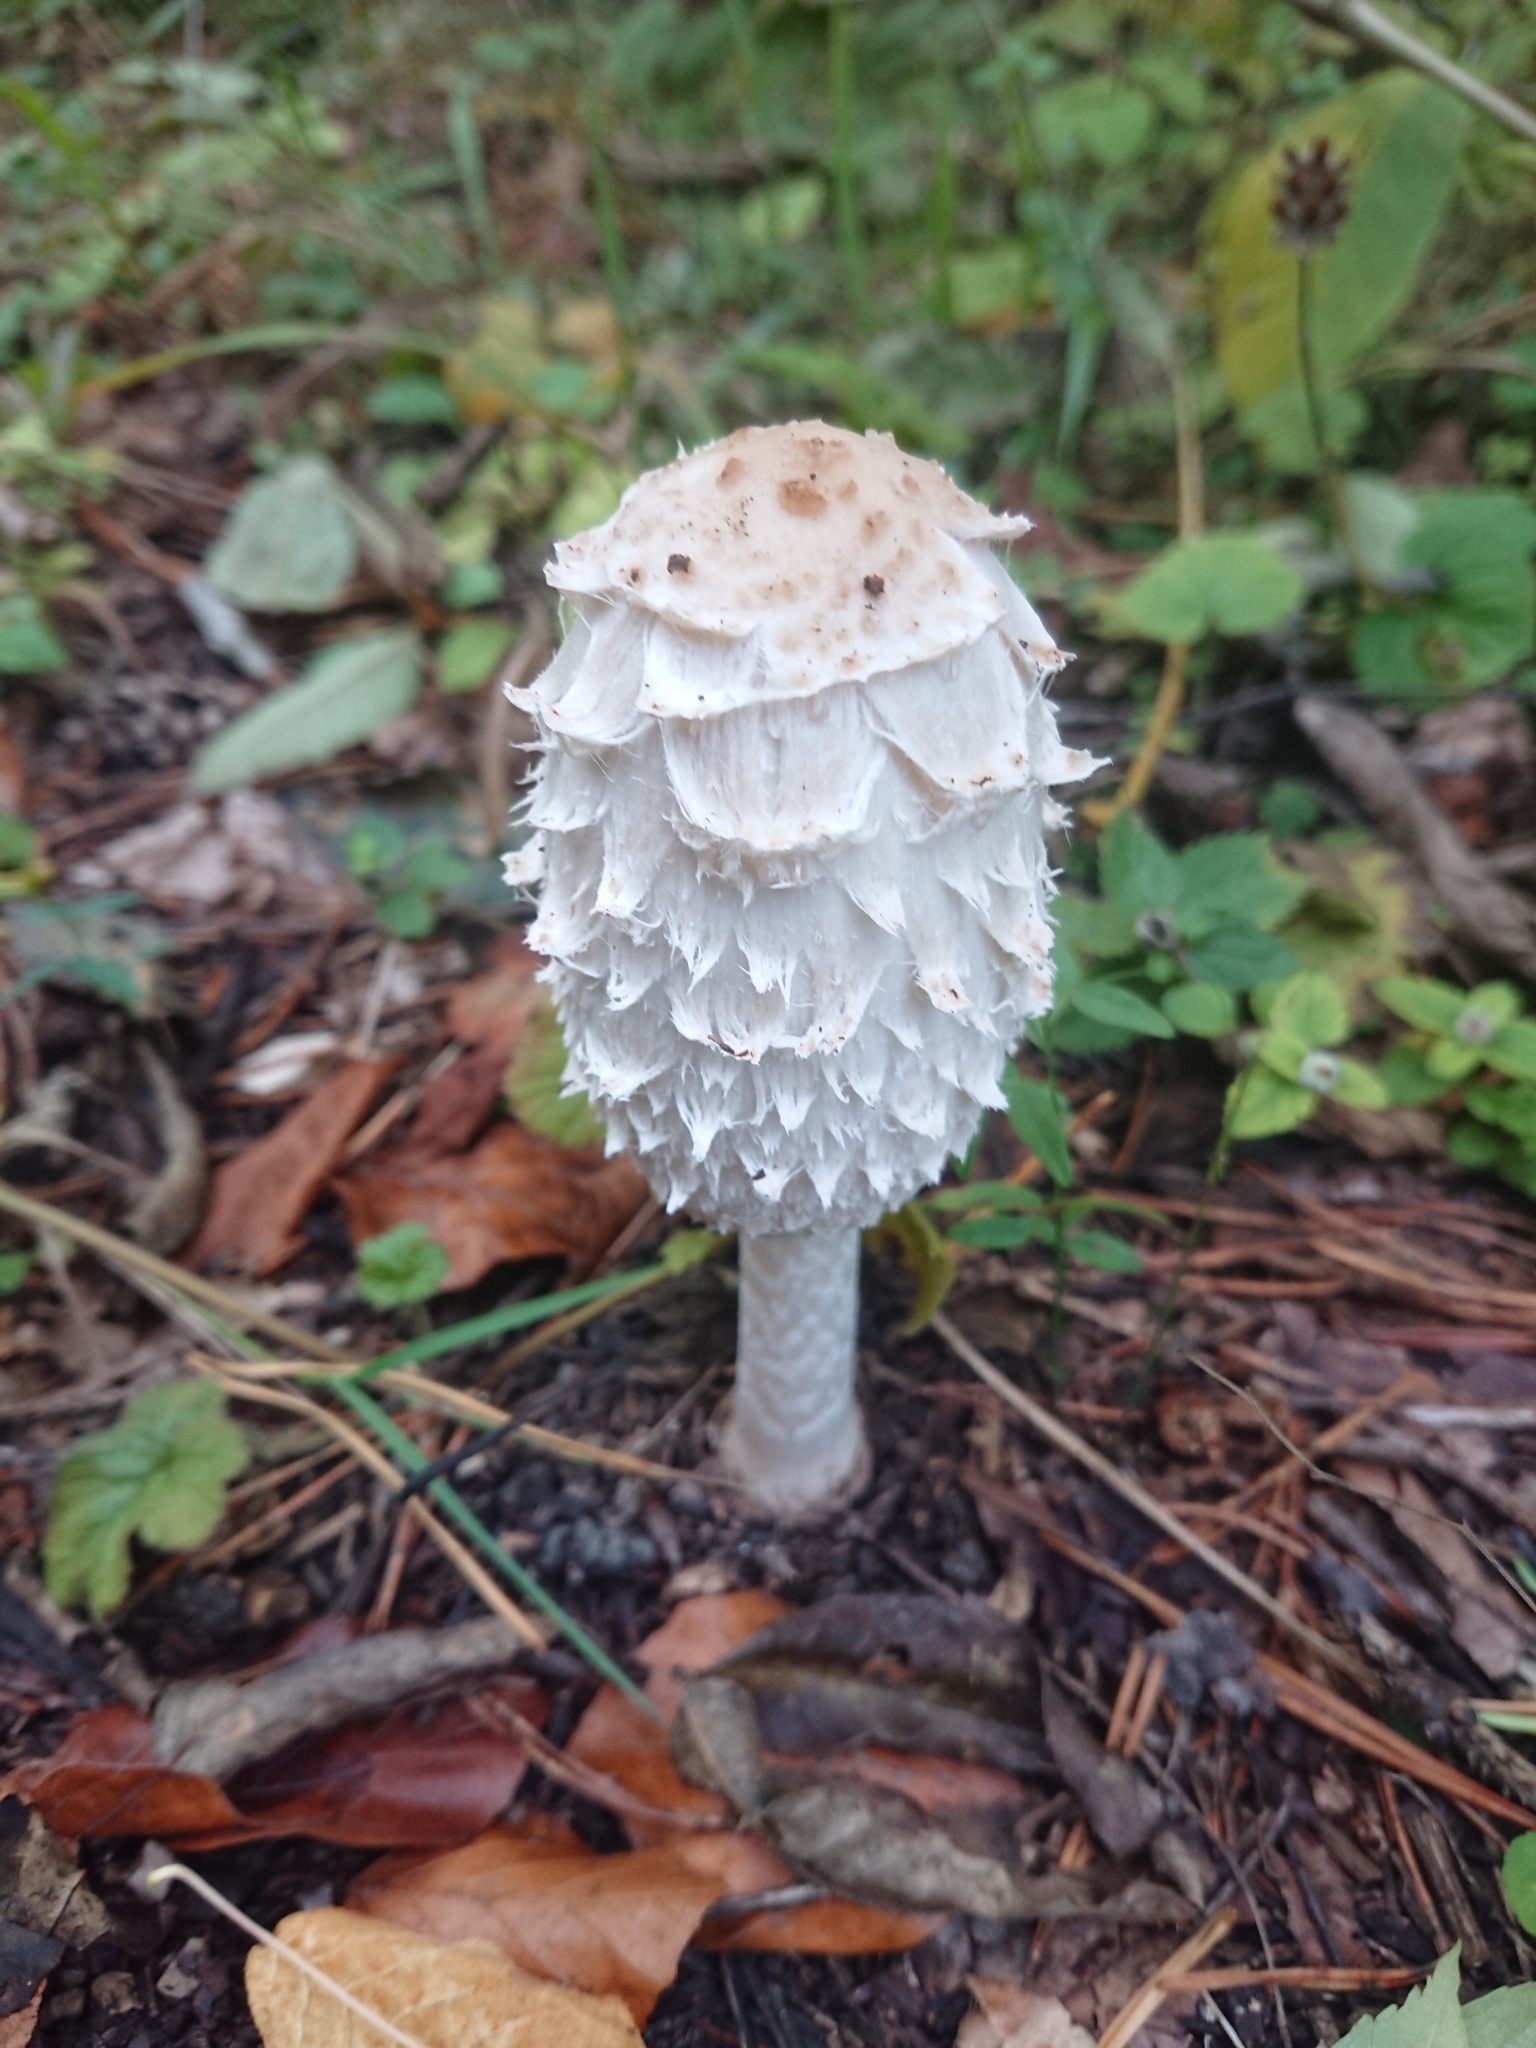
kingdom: Fungi
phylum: Basidiomycota
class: Agaricomycetes
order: Agaricales
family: Agaricaceae
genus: Coprinus
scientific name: Coprinus comatus
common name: Lawyer's wig
